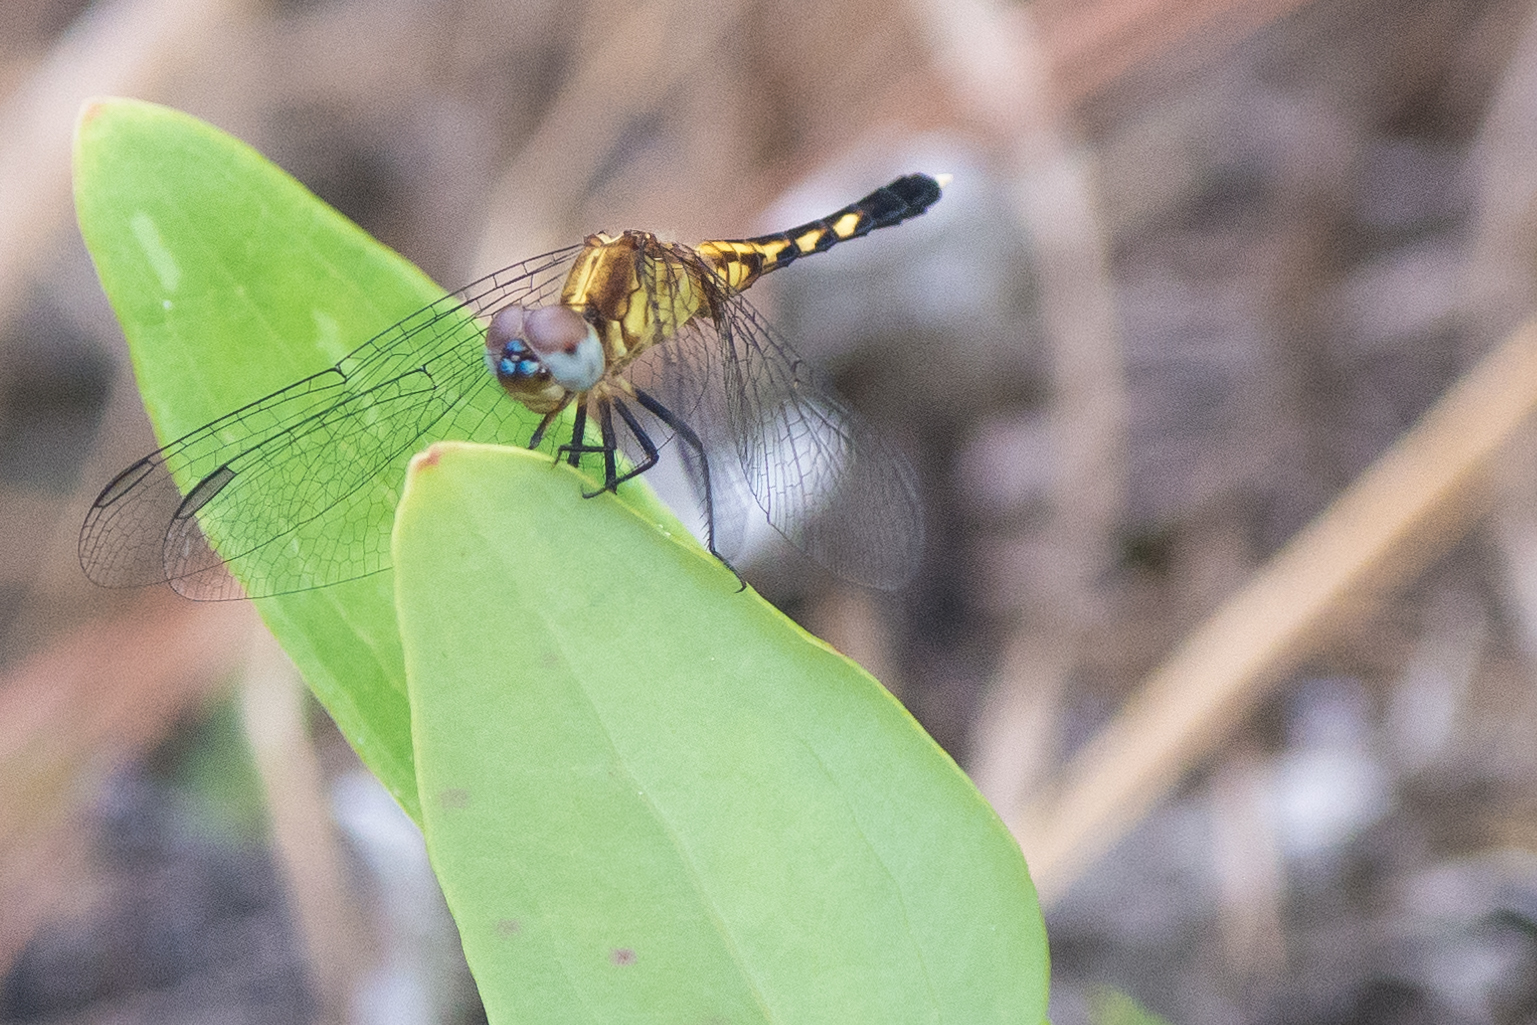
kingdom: Animalia
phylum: Arthropoda
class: Insecta
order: Odonata
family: Libellulidae
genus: Erythrodiplax
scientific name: Erythrodiplax minuscula
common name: Little blue dragonlet
